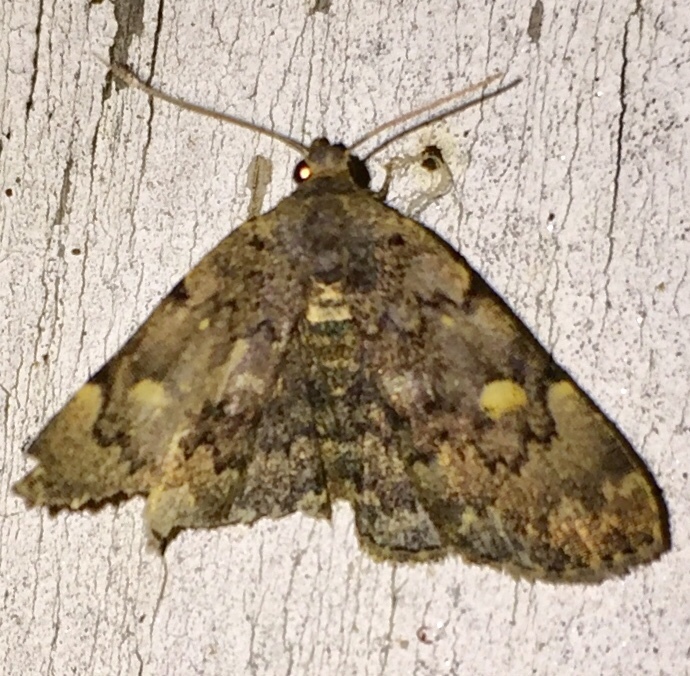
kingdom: Animalia
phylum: Arthropoda
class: Insecta
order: Lepidoptera
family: Erebidae
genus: Idia
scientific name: Idia aemula
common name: Common idia moth
